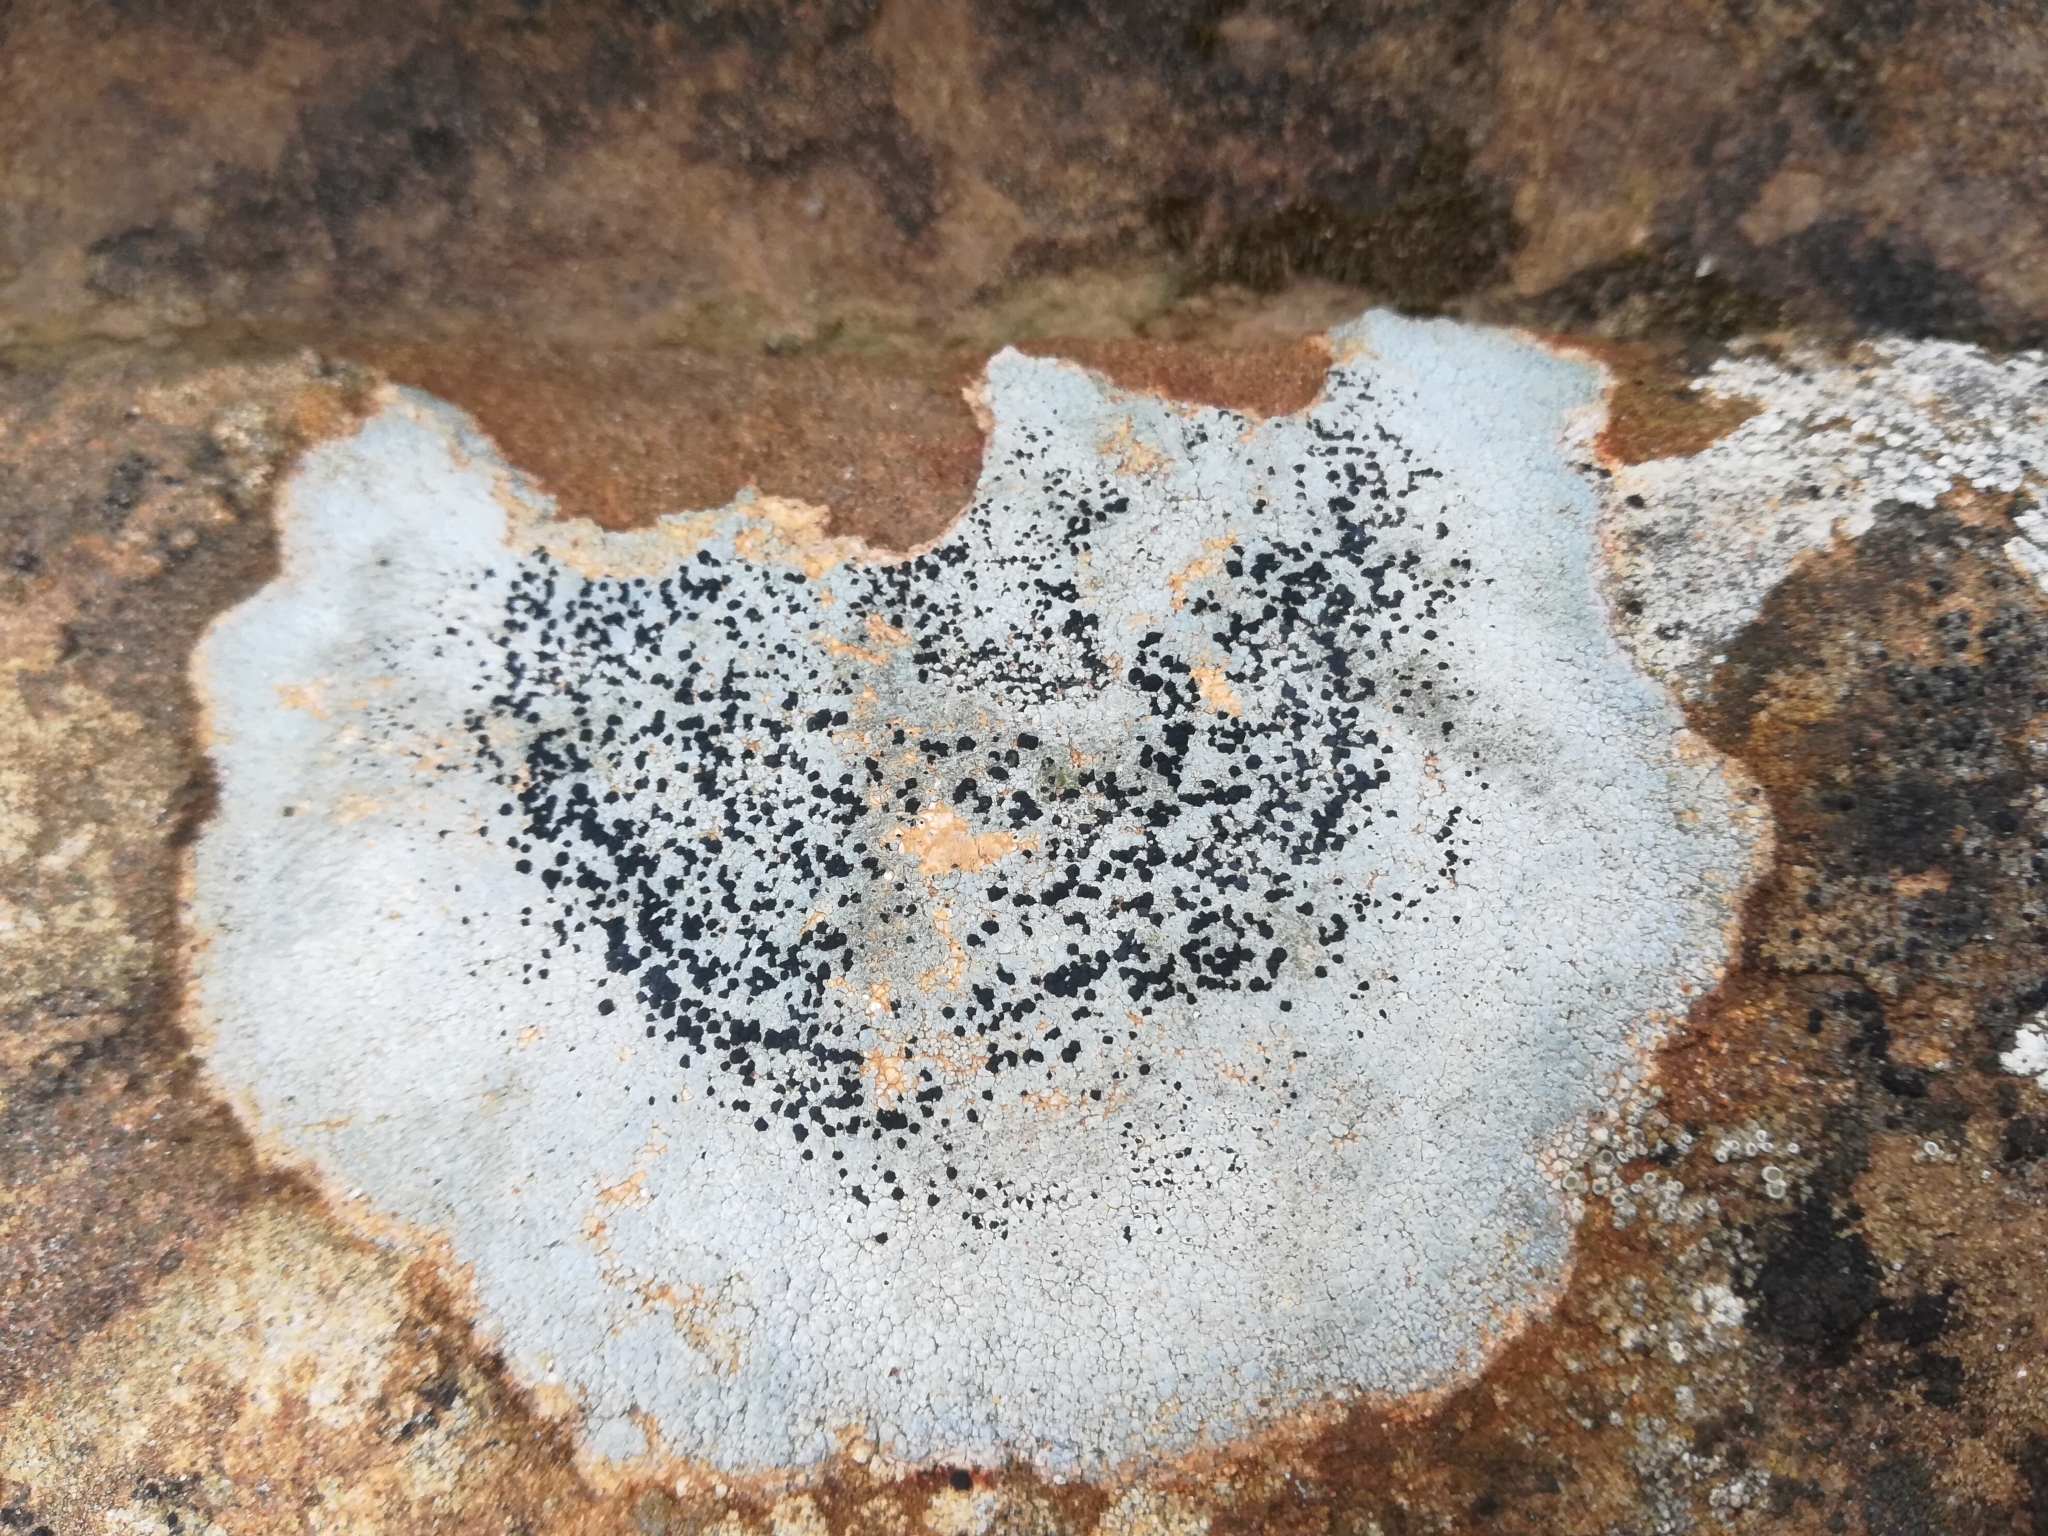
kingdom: Fungi
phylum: Ascomycota
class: Lecanoromycetes
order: Lecideales
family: Lecideaceae
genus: Porpidia
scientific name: Porpidia crustulata
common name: Concentric boulder lichen
